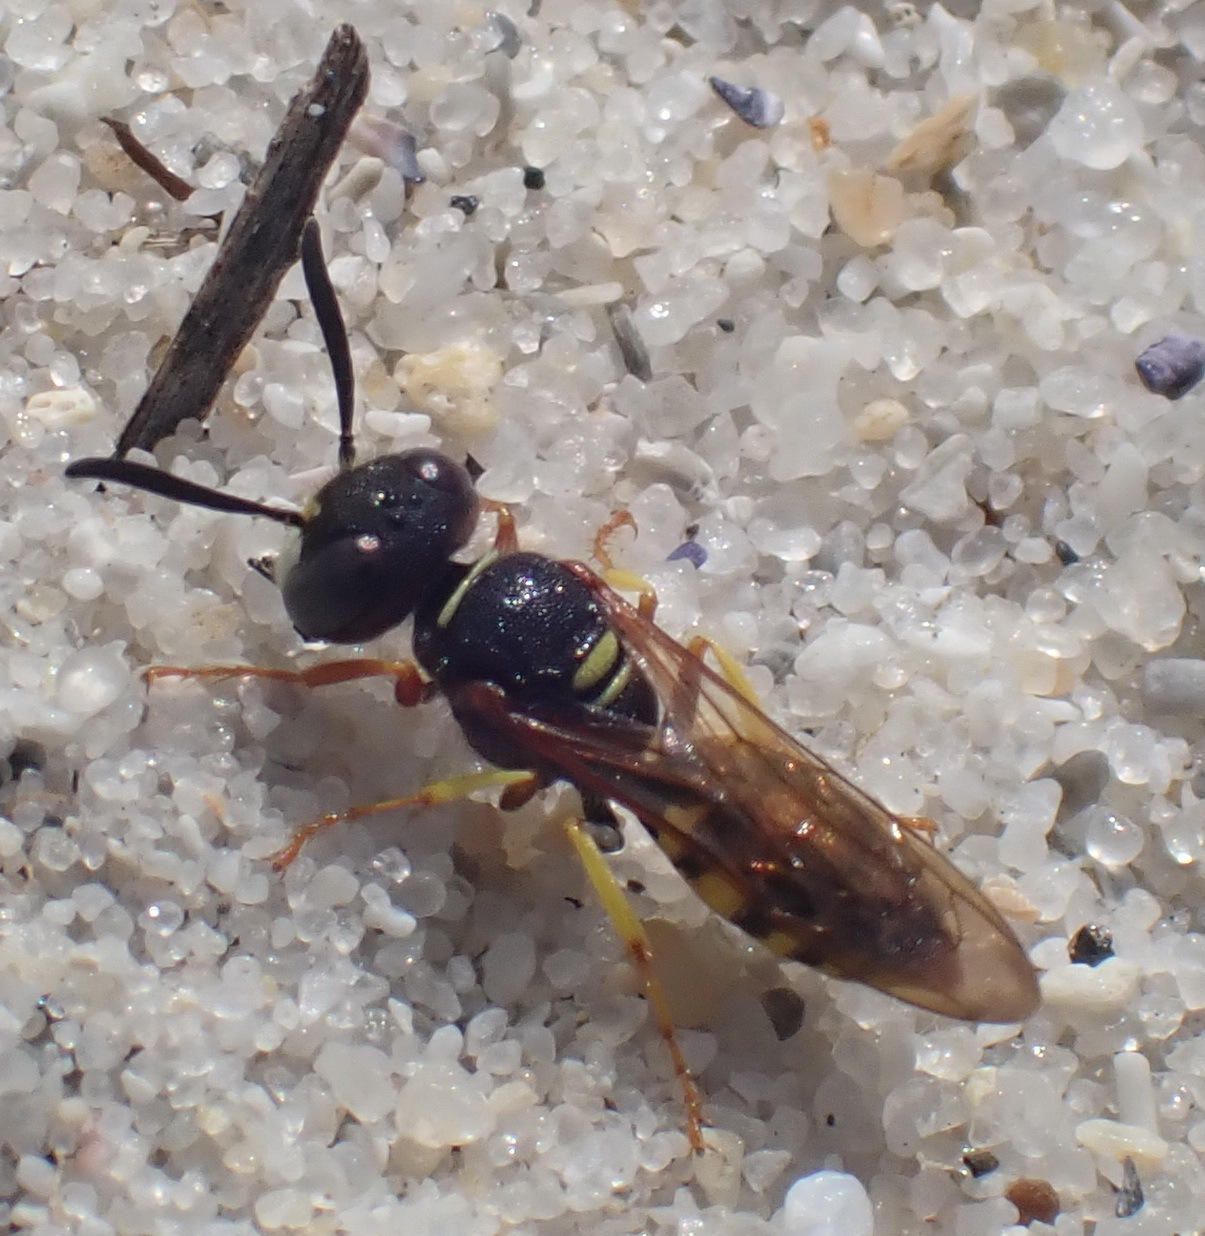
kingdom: Animalia
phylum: Arthropoda
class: Insecta
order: Hymenoptera
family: Crabronidae
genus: Philanthus
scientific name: Philanthus triangulum
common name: Bee wolf
